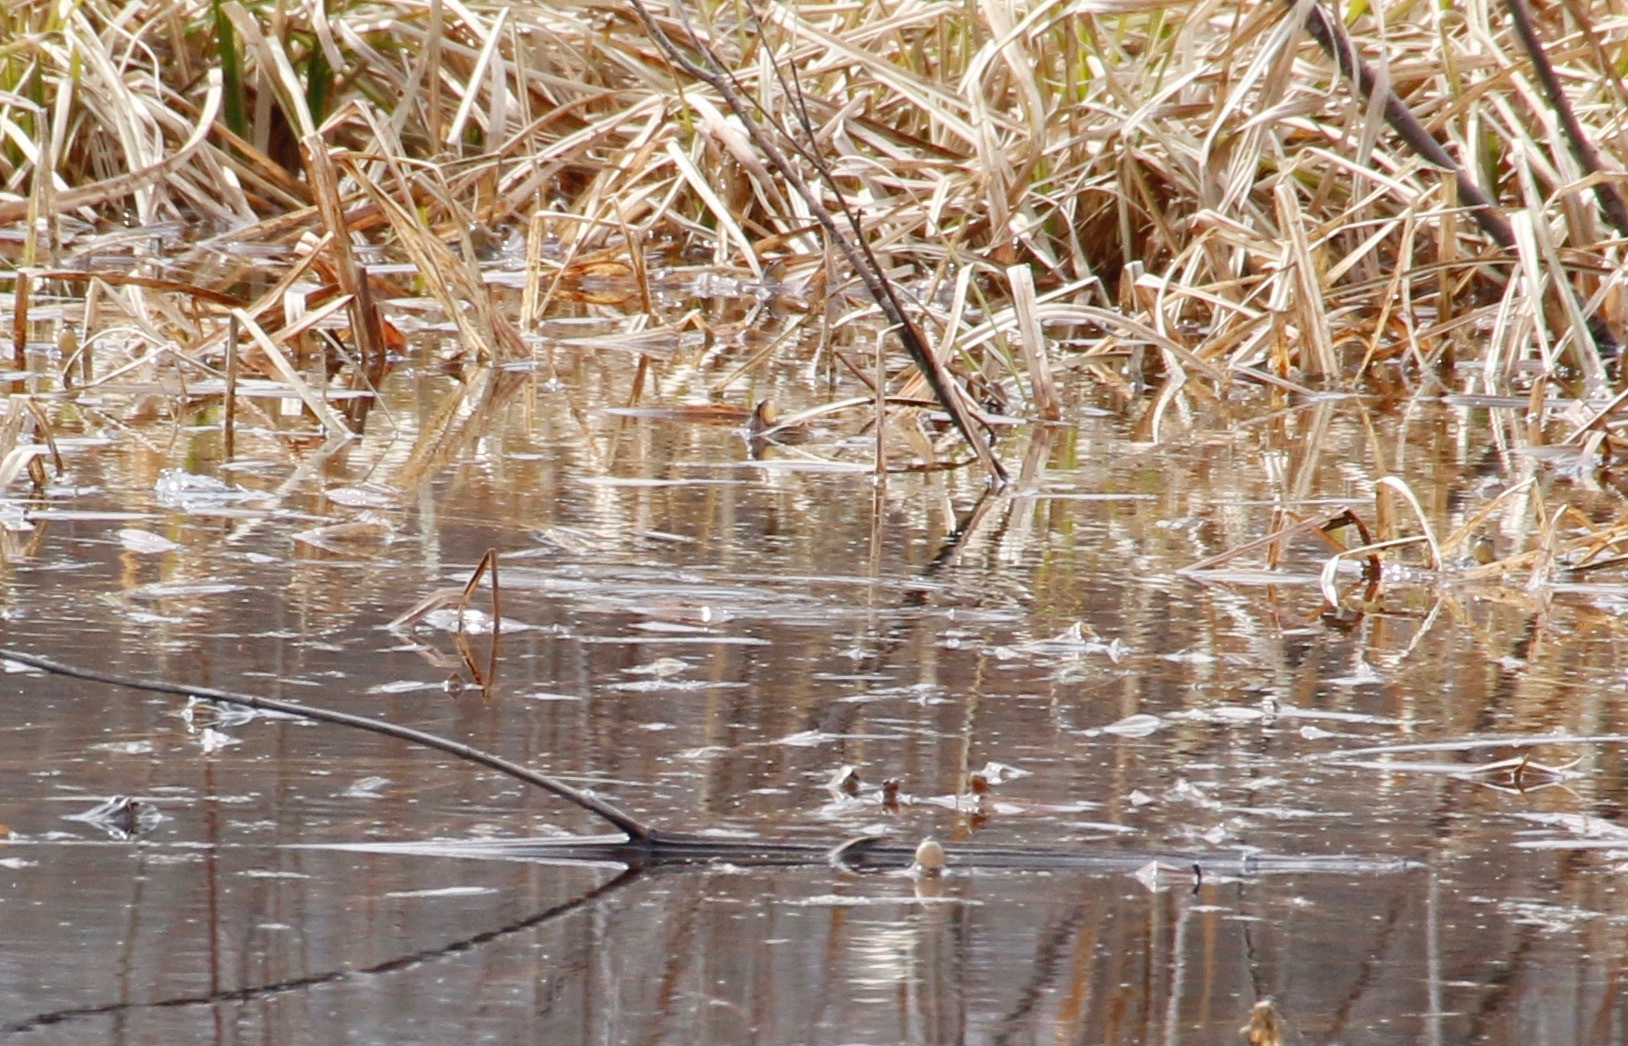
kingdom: Animalia
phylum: Chordata
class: Amphibia
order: Anura
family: Hylidae
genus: Pseudacris
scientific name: Pseudacris maculata
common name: Boreal chorus frog
